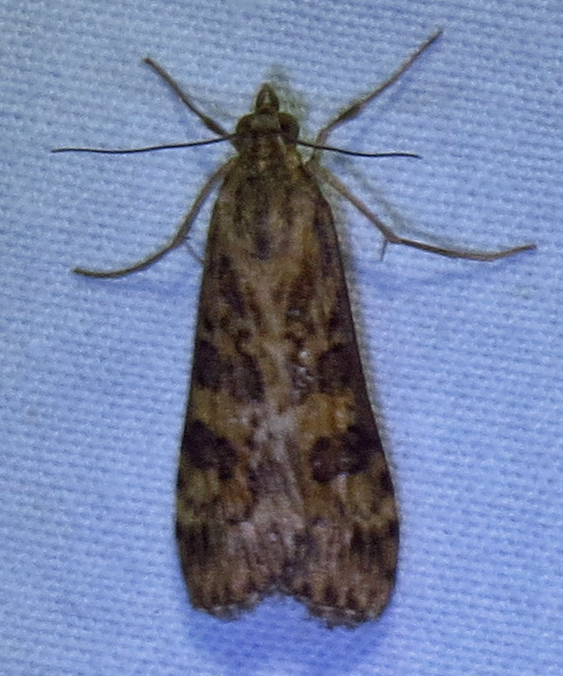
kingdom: Animalia
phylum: Arthropoda
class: Insecta
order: Lepidoptera
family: Crambidae
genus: Nomophila
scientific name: Nomophila nearctica
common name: American rush veneer
